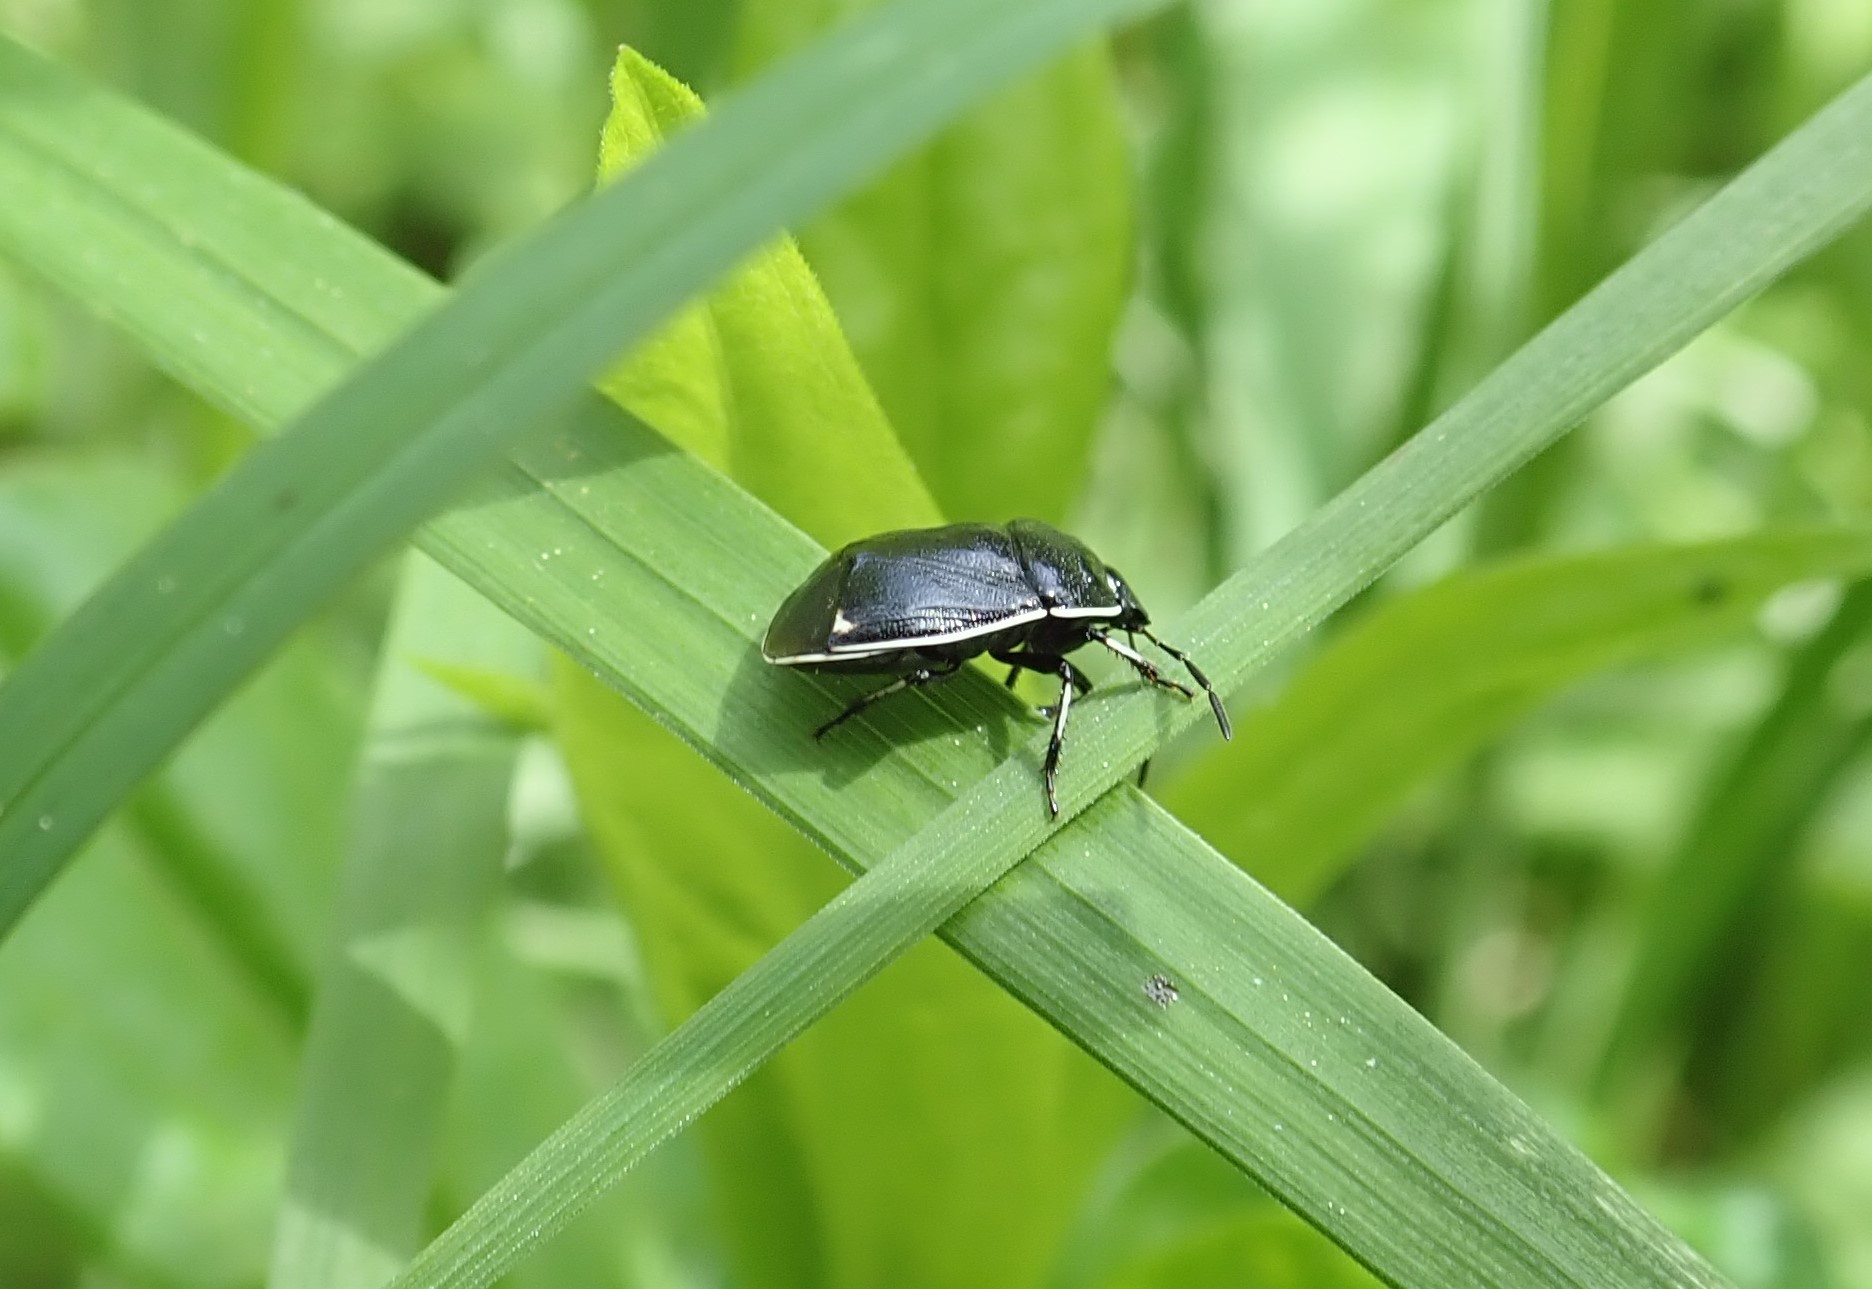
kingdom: Animalia
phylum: Arthropoda
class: Insecta
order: Hemiptera
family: Cydnidae
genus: Sehirus
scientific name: Sehirus cinctus
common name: White-margined burrower bug
